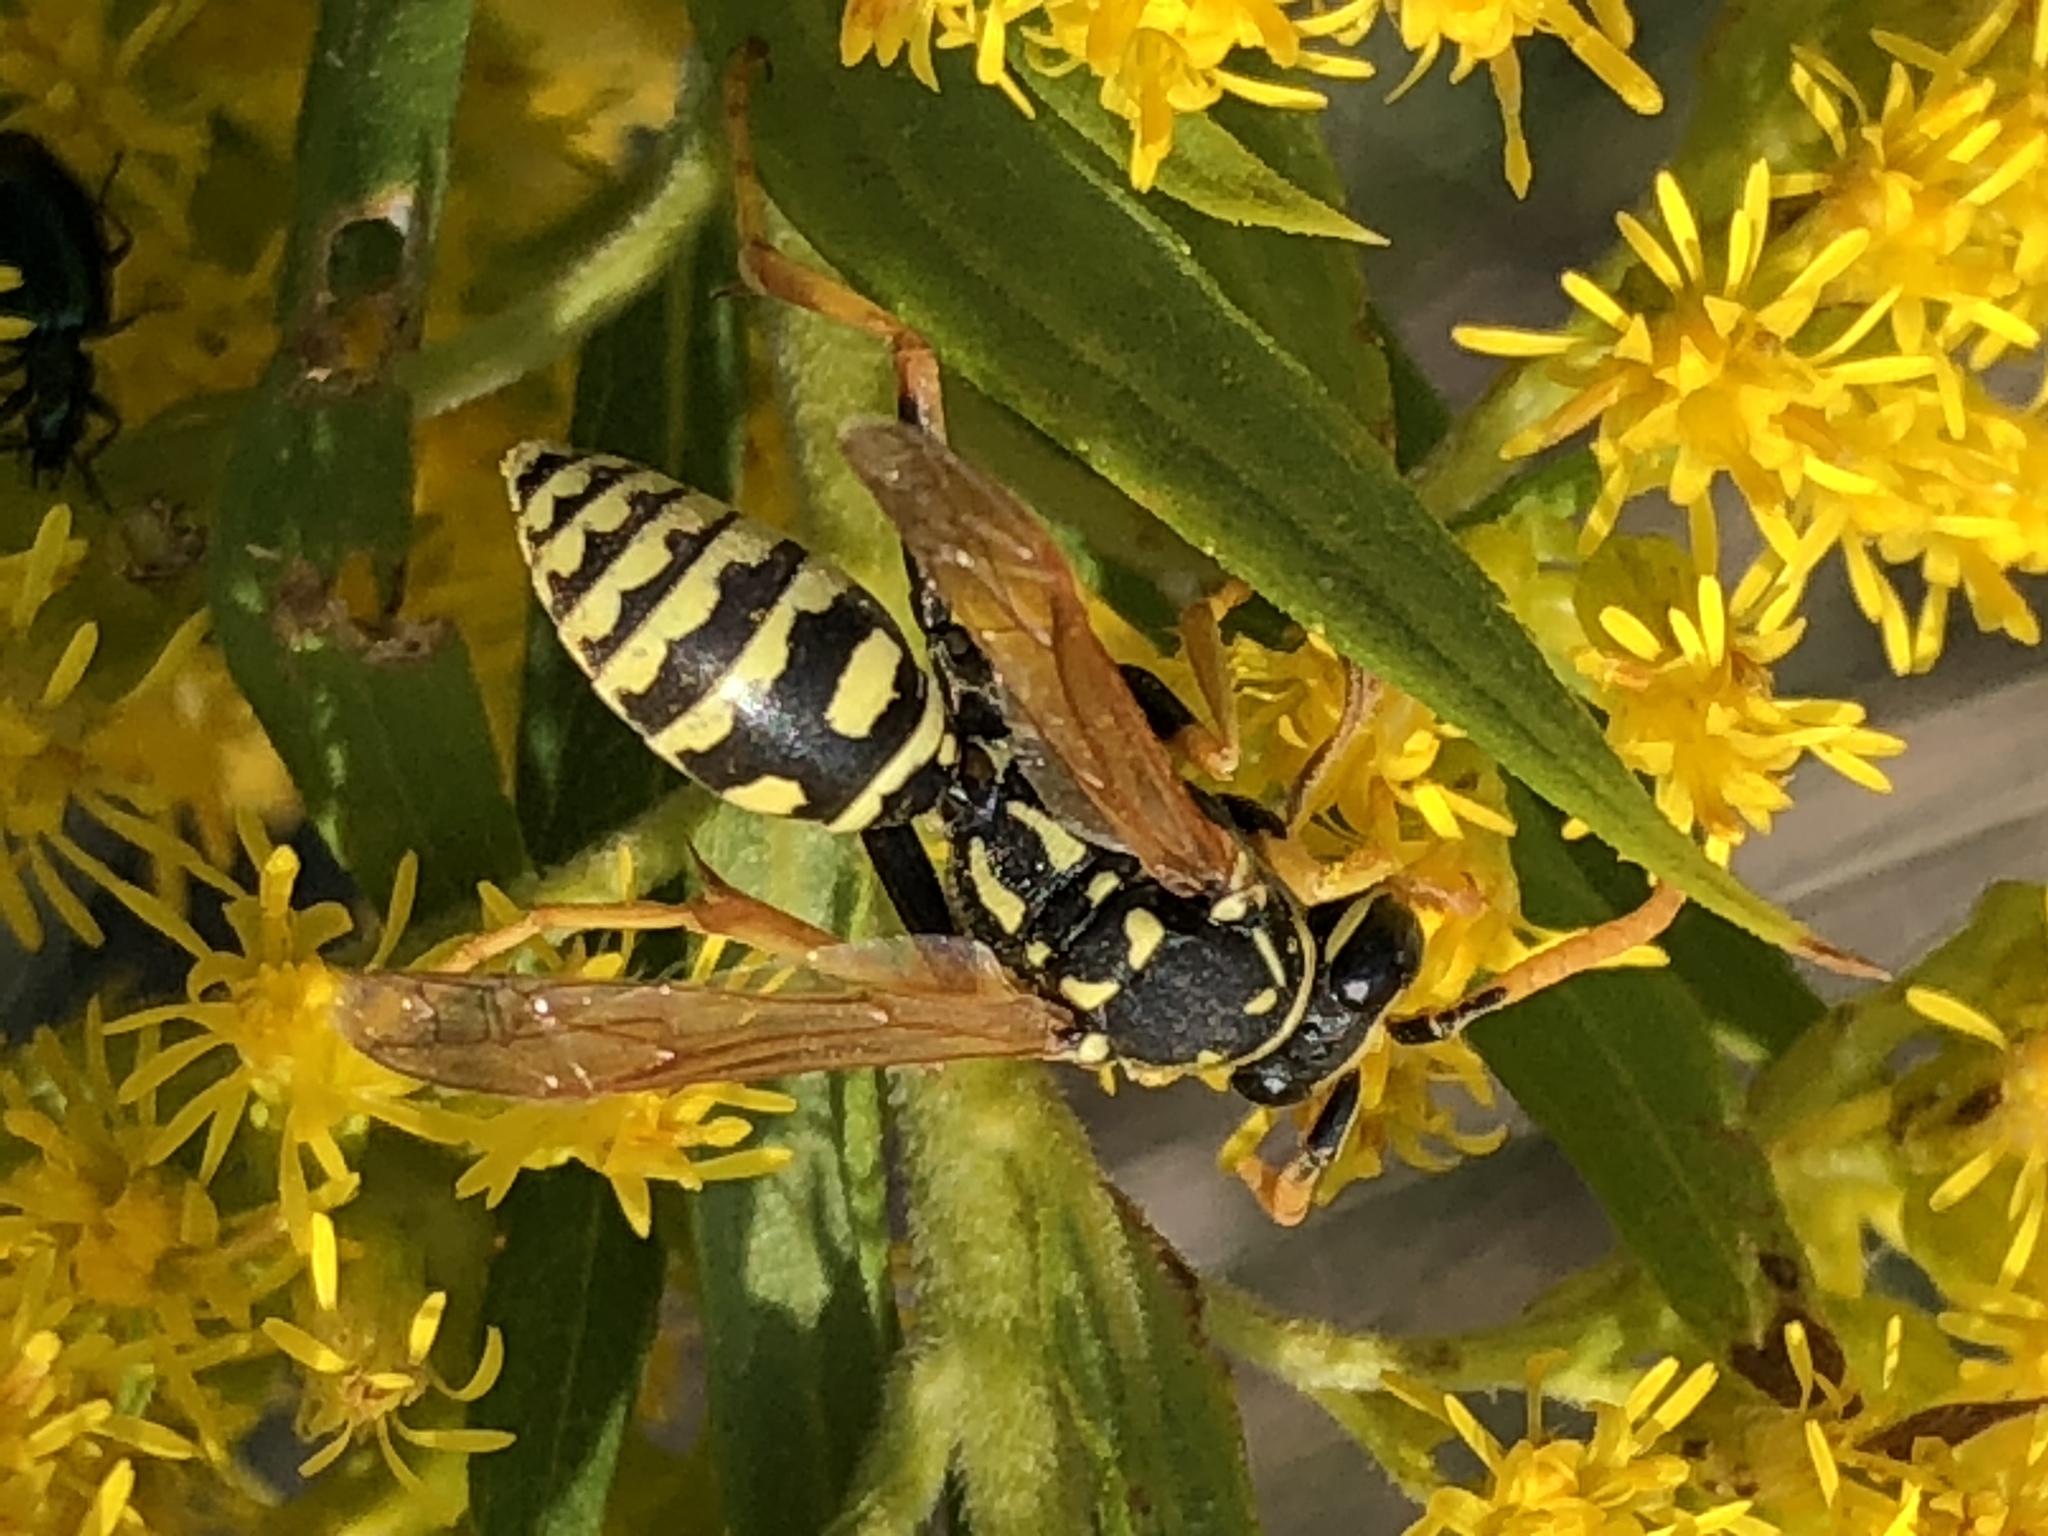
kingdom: Animalia
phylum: Arthropoda
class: Insecta
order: Hymenoptera
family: Eumenidae
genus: Polistes
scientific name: Polistes dominula
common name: Paper wasp
